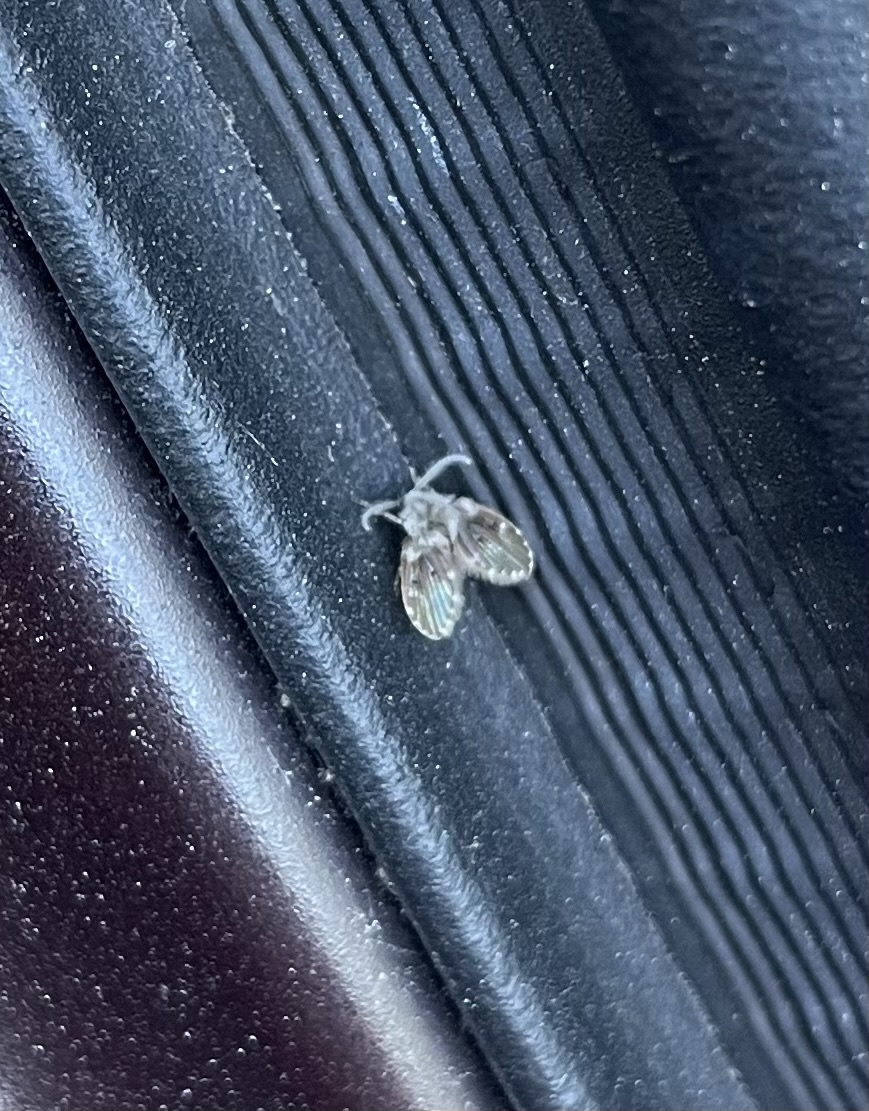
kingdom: Animalia
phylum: Arthropoda
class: Insecta
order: Diptera
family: Psychodidae
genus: Clogmia
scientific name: Clogmia albipunctatus
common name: White-spotted moth fly
